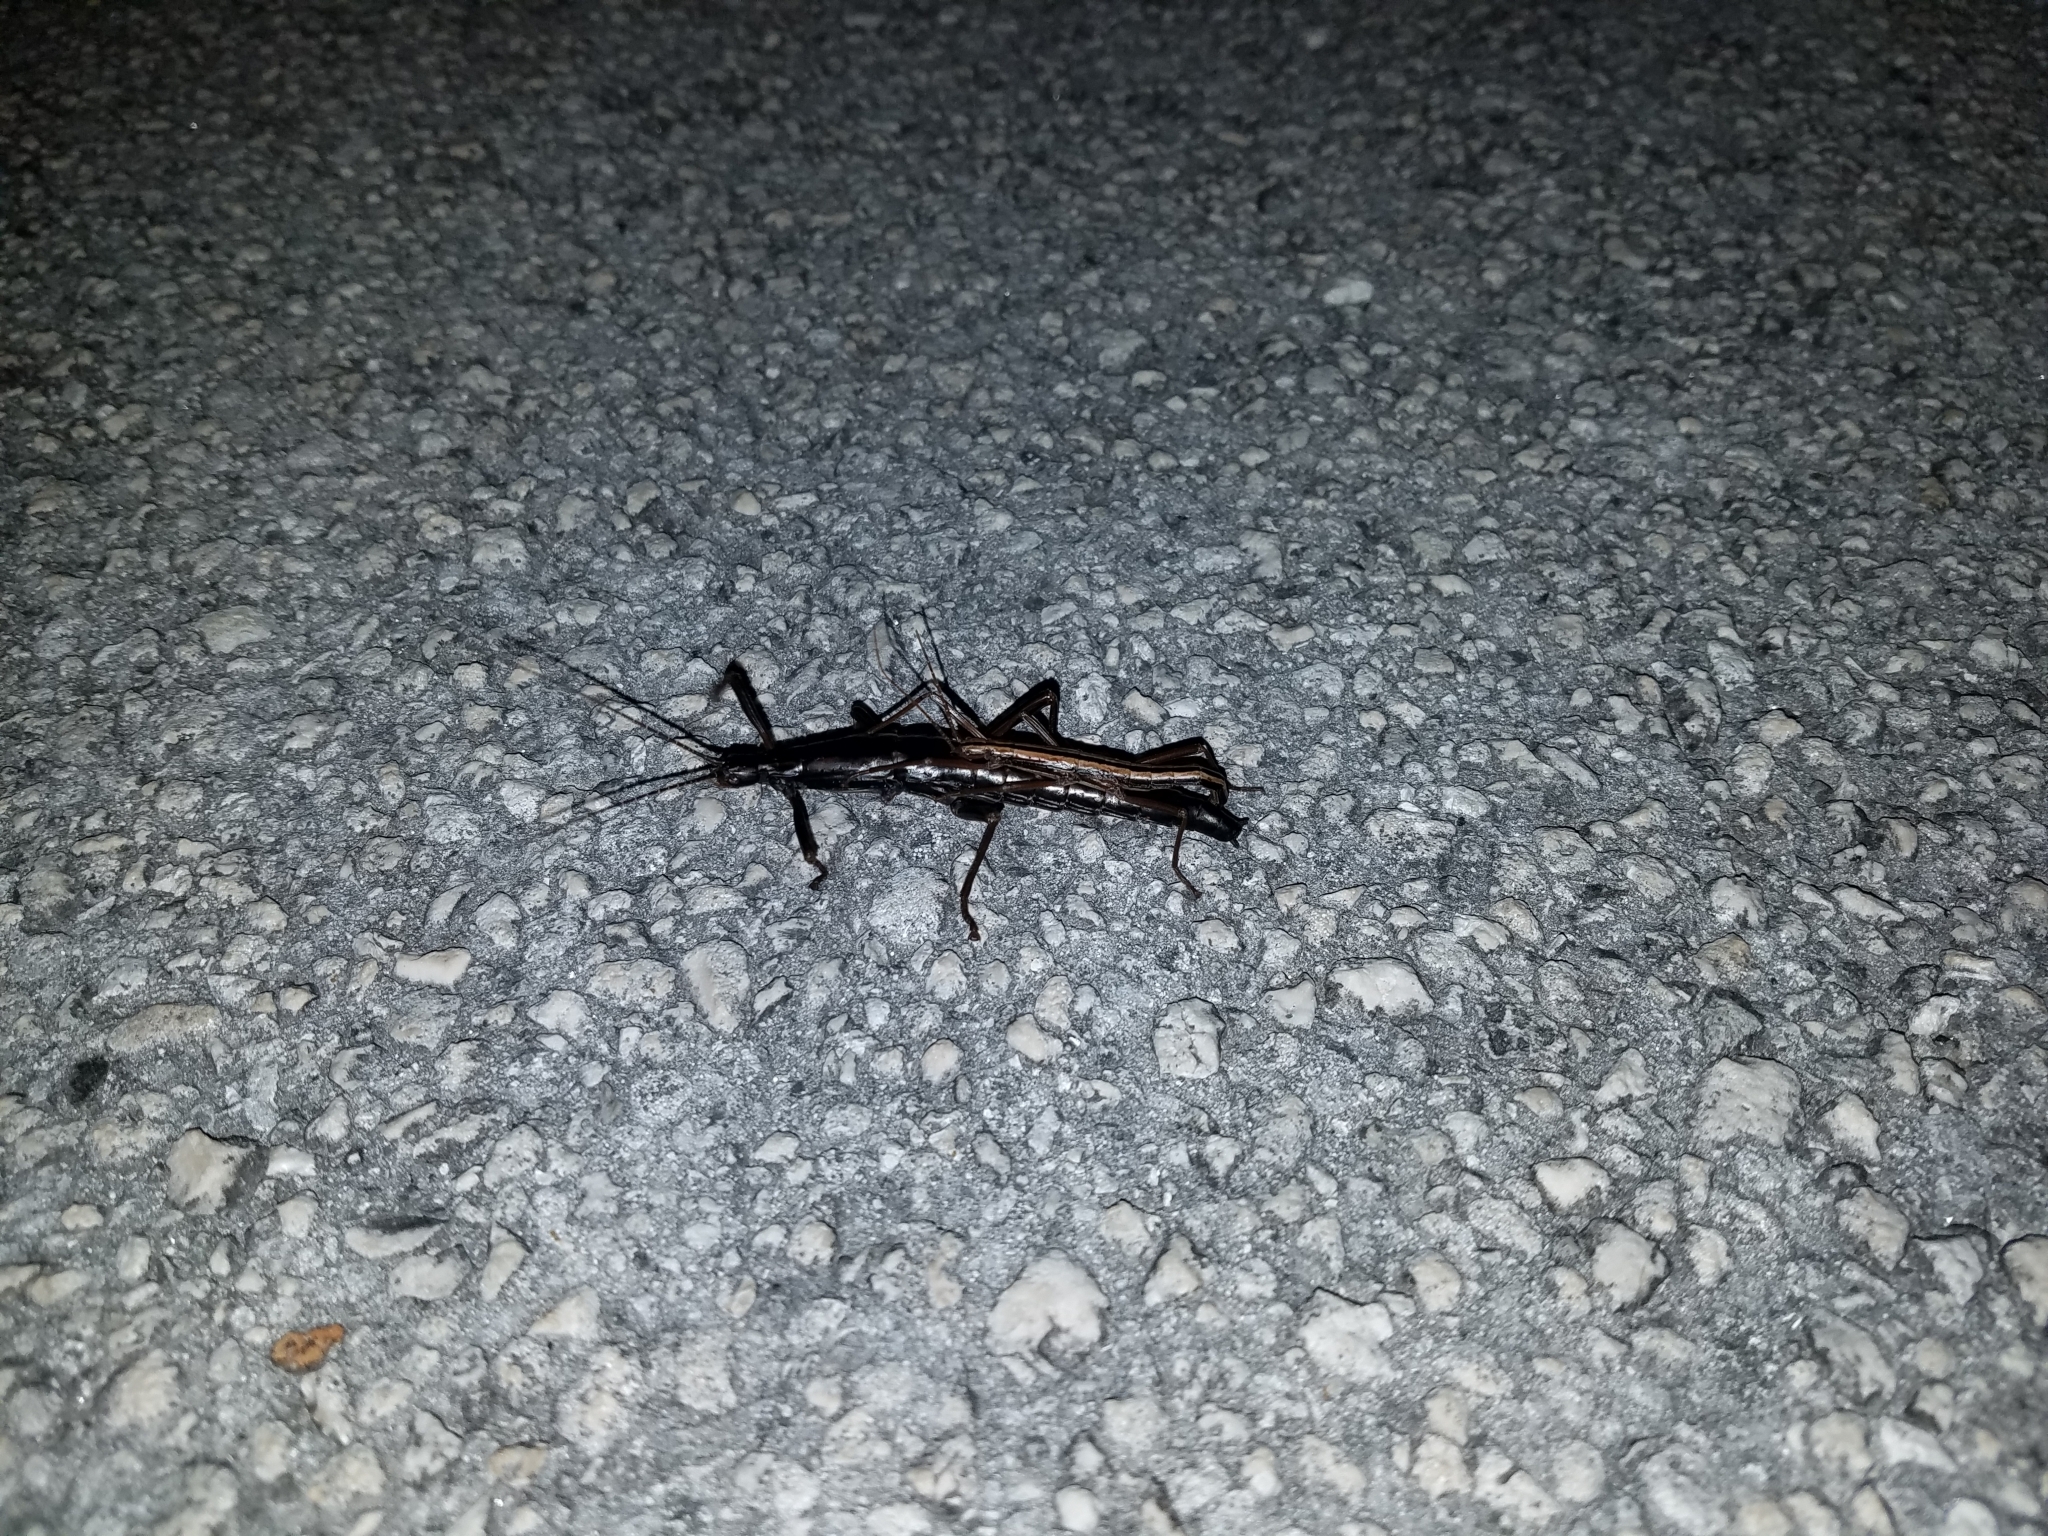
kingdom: Animalia
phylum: Arthropoda
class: Insecta
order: Phasmida
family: Pseudophasmatidae
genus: Anisomorpha
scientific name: Anisomorpha buprestoides
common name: Florida stick insect
